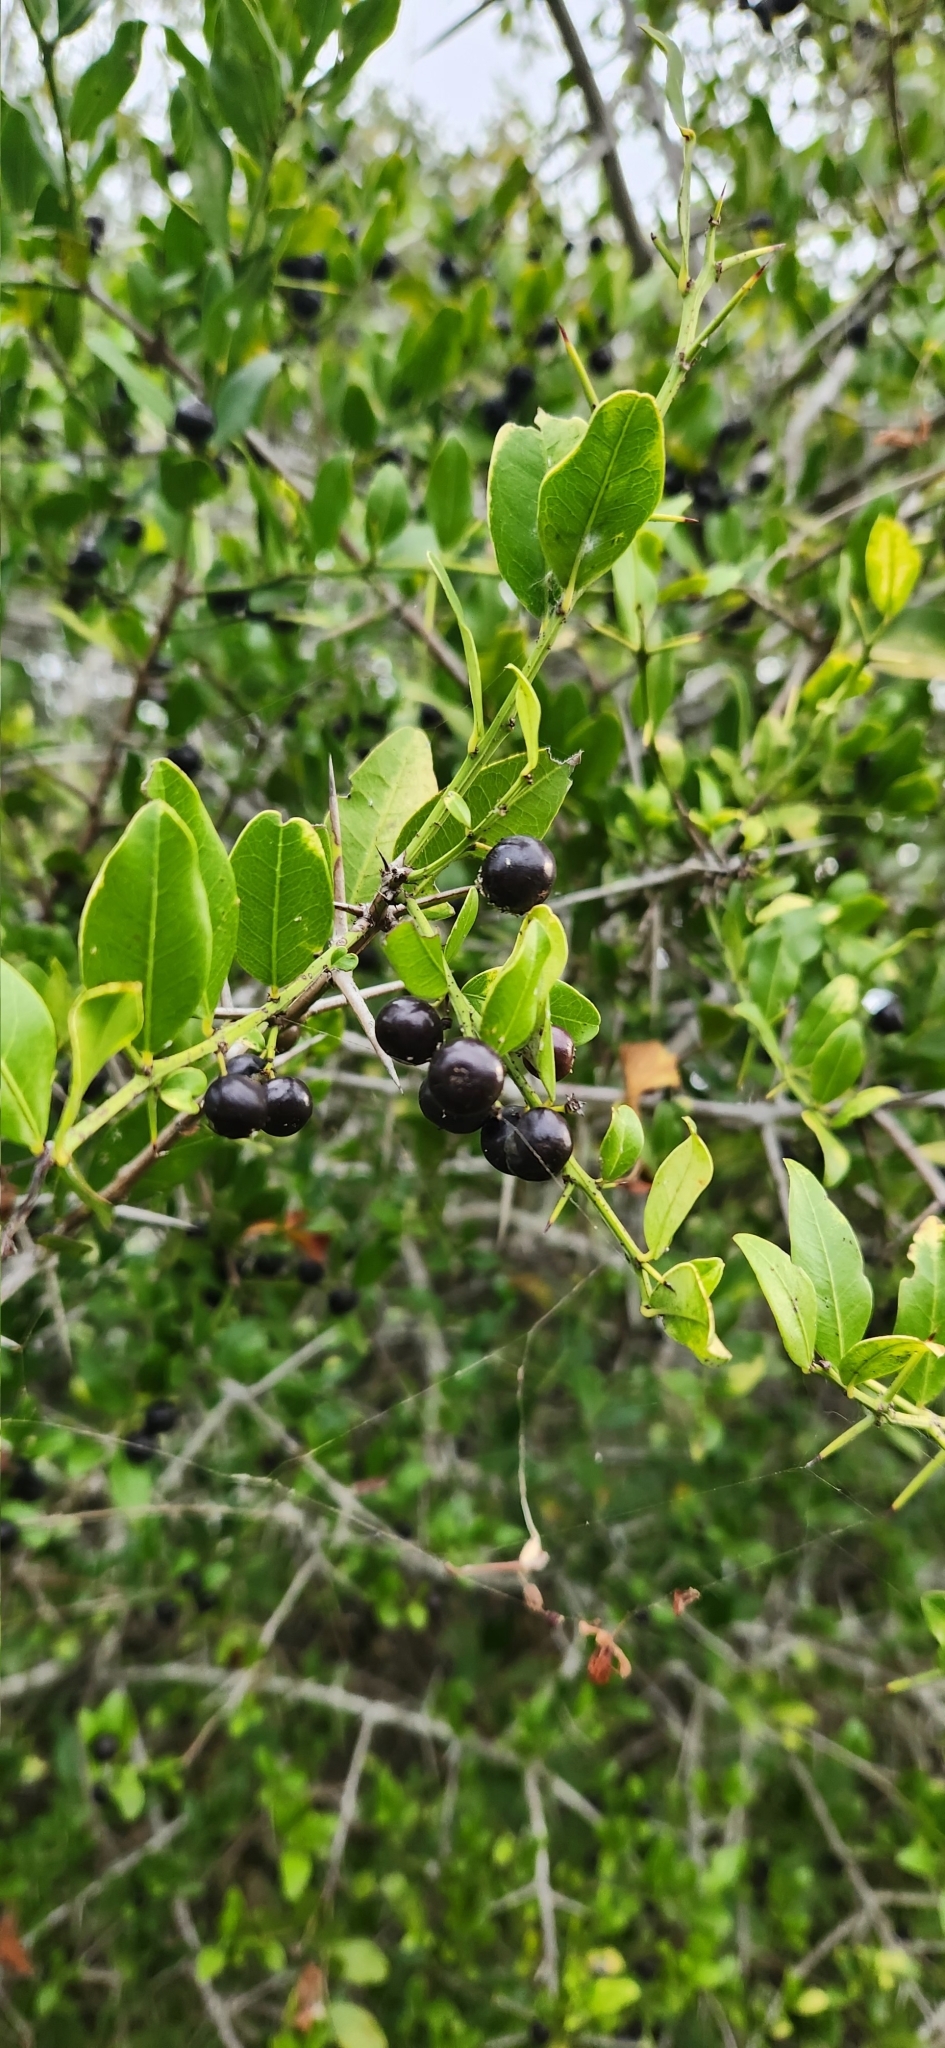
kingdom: Plantae
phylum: Tracheophyta
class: Magnoliopsida
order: Rosales
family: Rhamnaceae
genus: Scutia
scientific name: Scutia buxifolia
